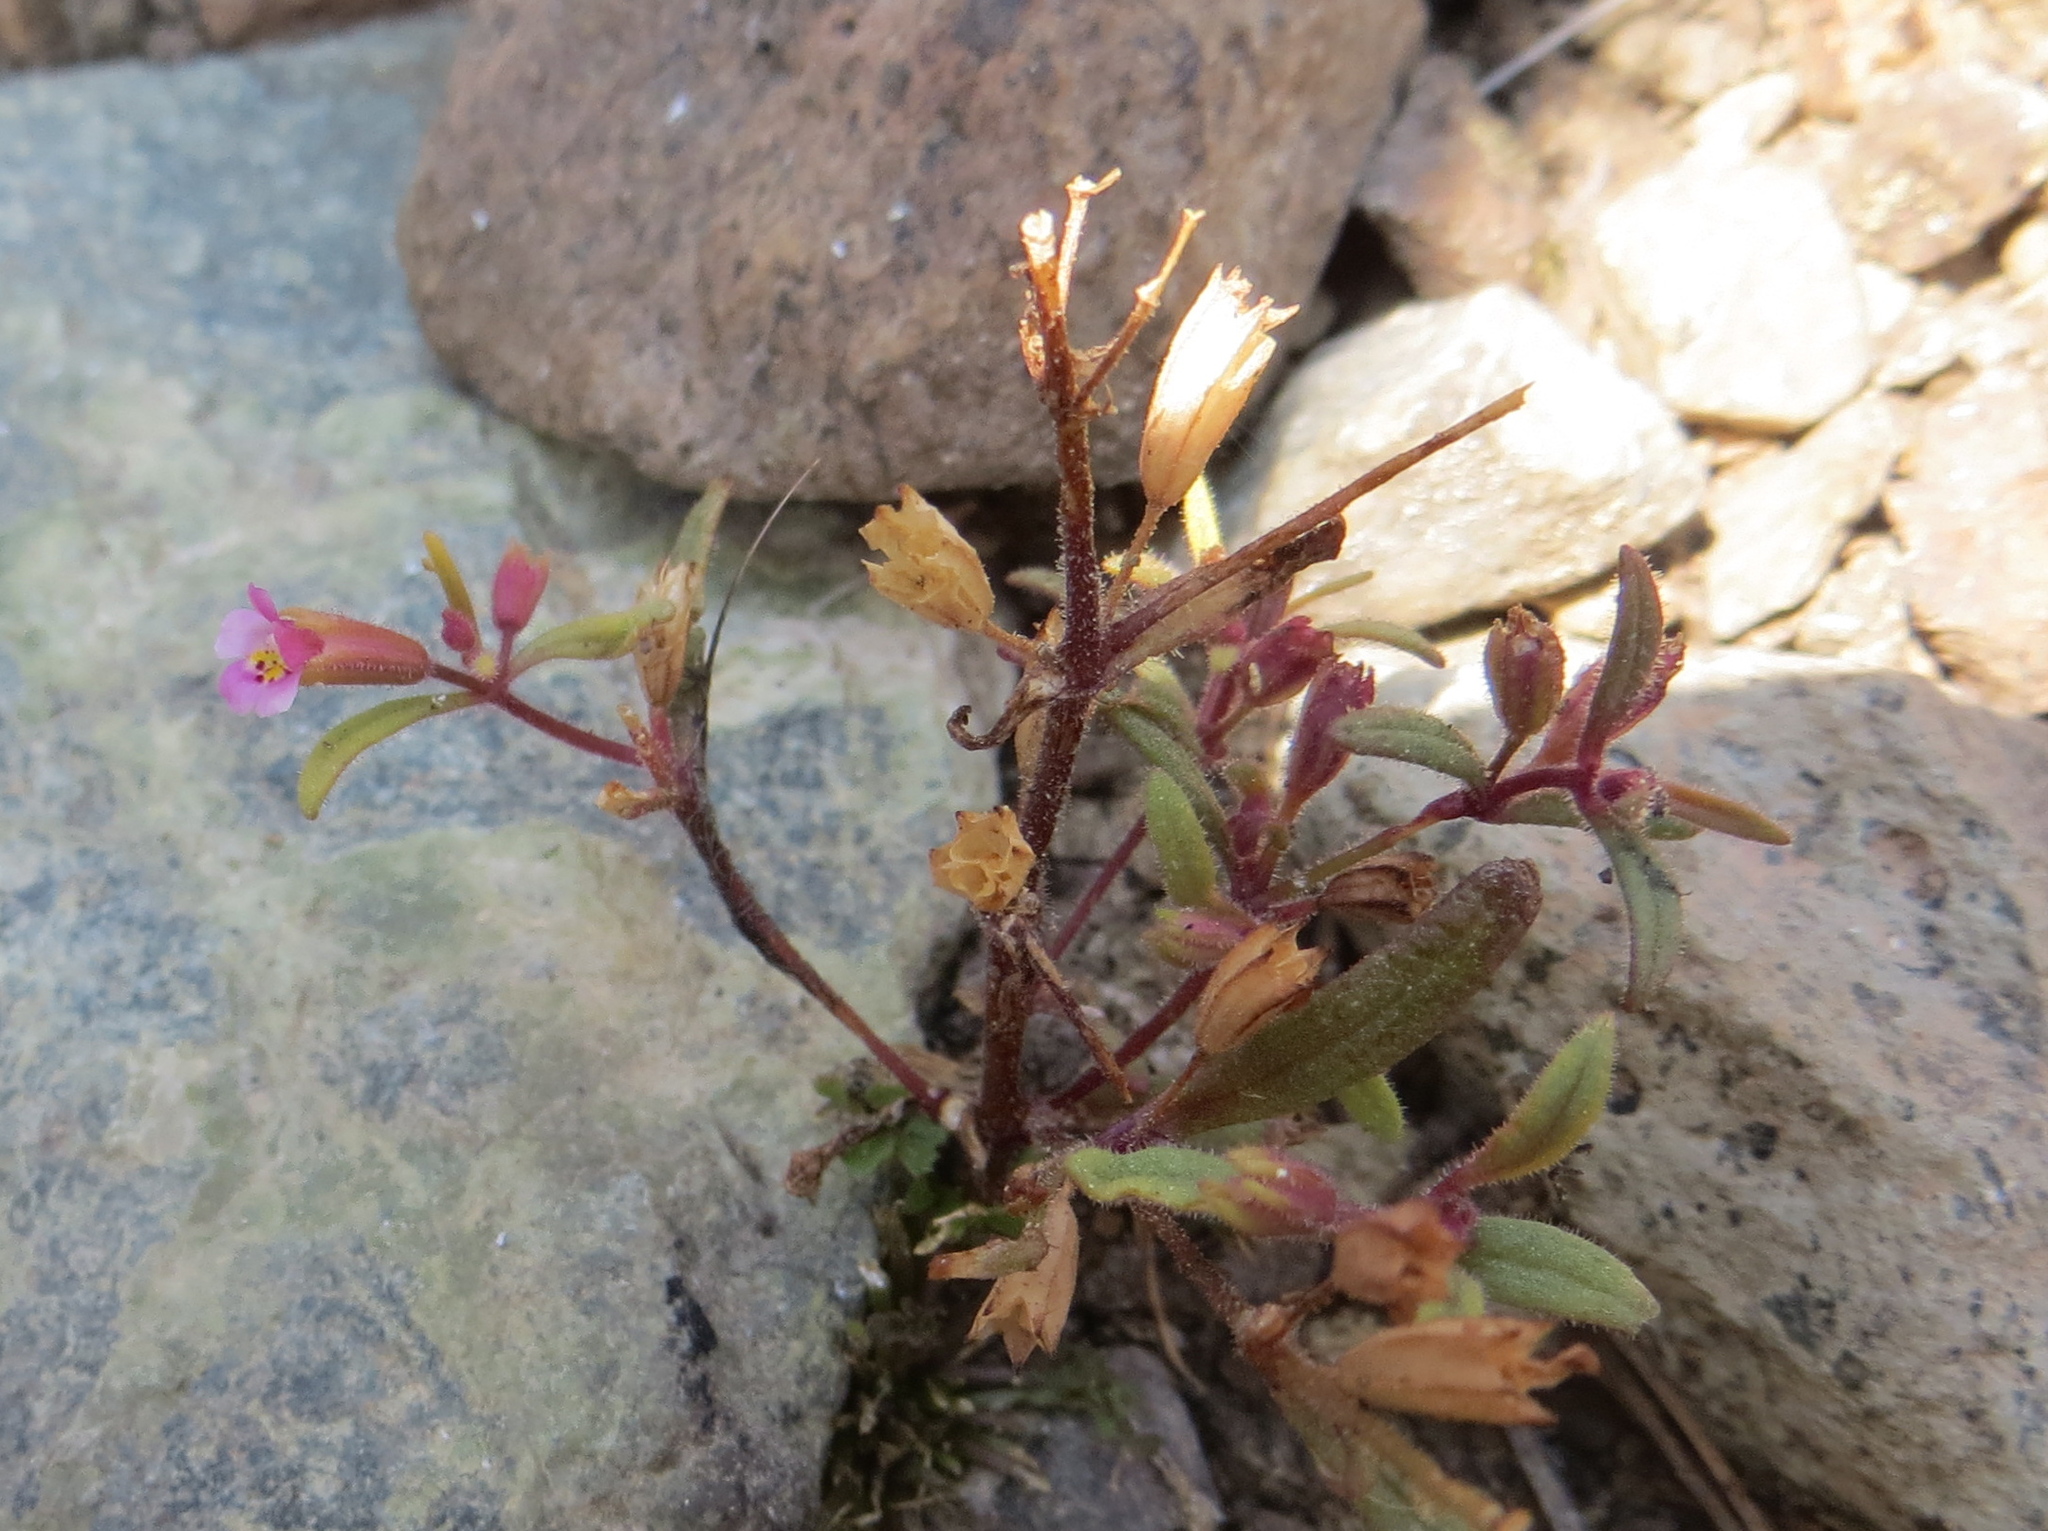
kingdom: Plantae
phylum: Tracheophyta
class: Magnoliopsida
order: Lamiales
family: Phrymaceae
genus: Erythranthe
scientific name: Erythranthe breweri
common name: Brewer's monkeyflower
